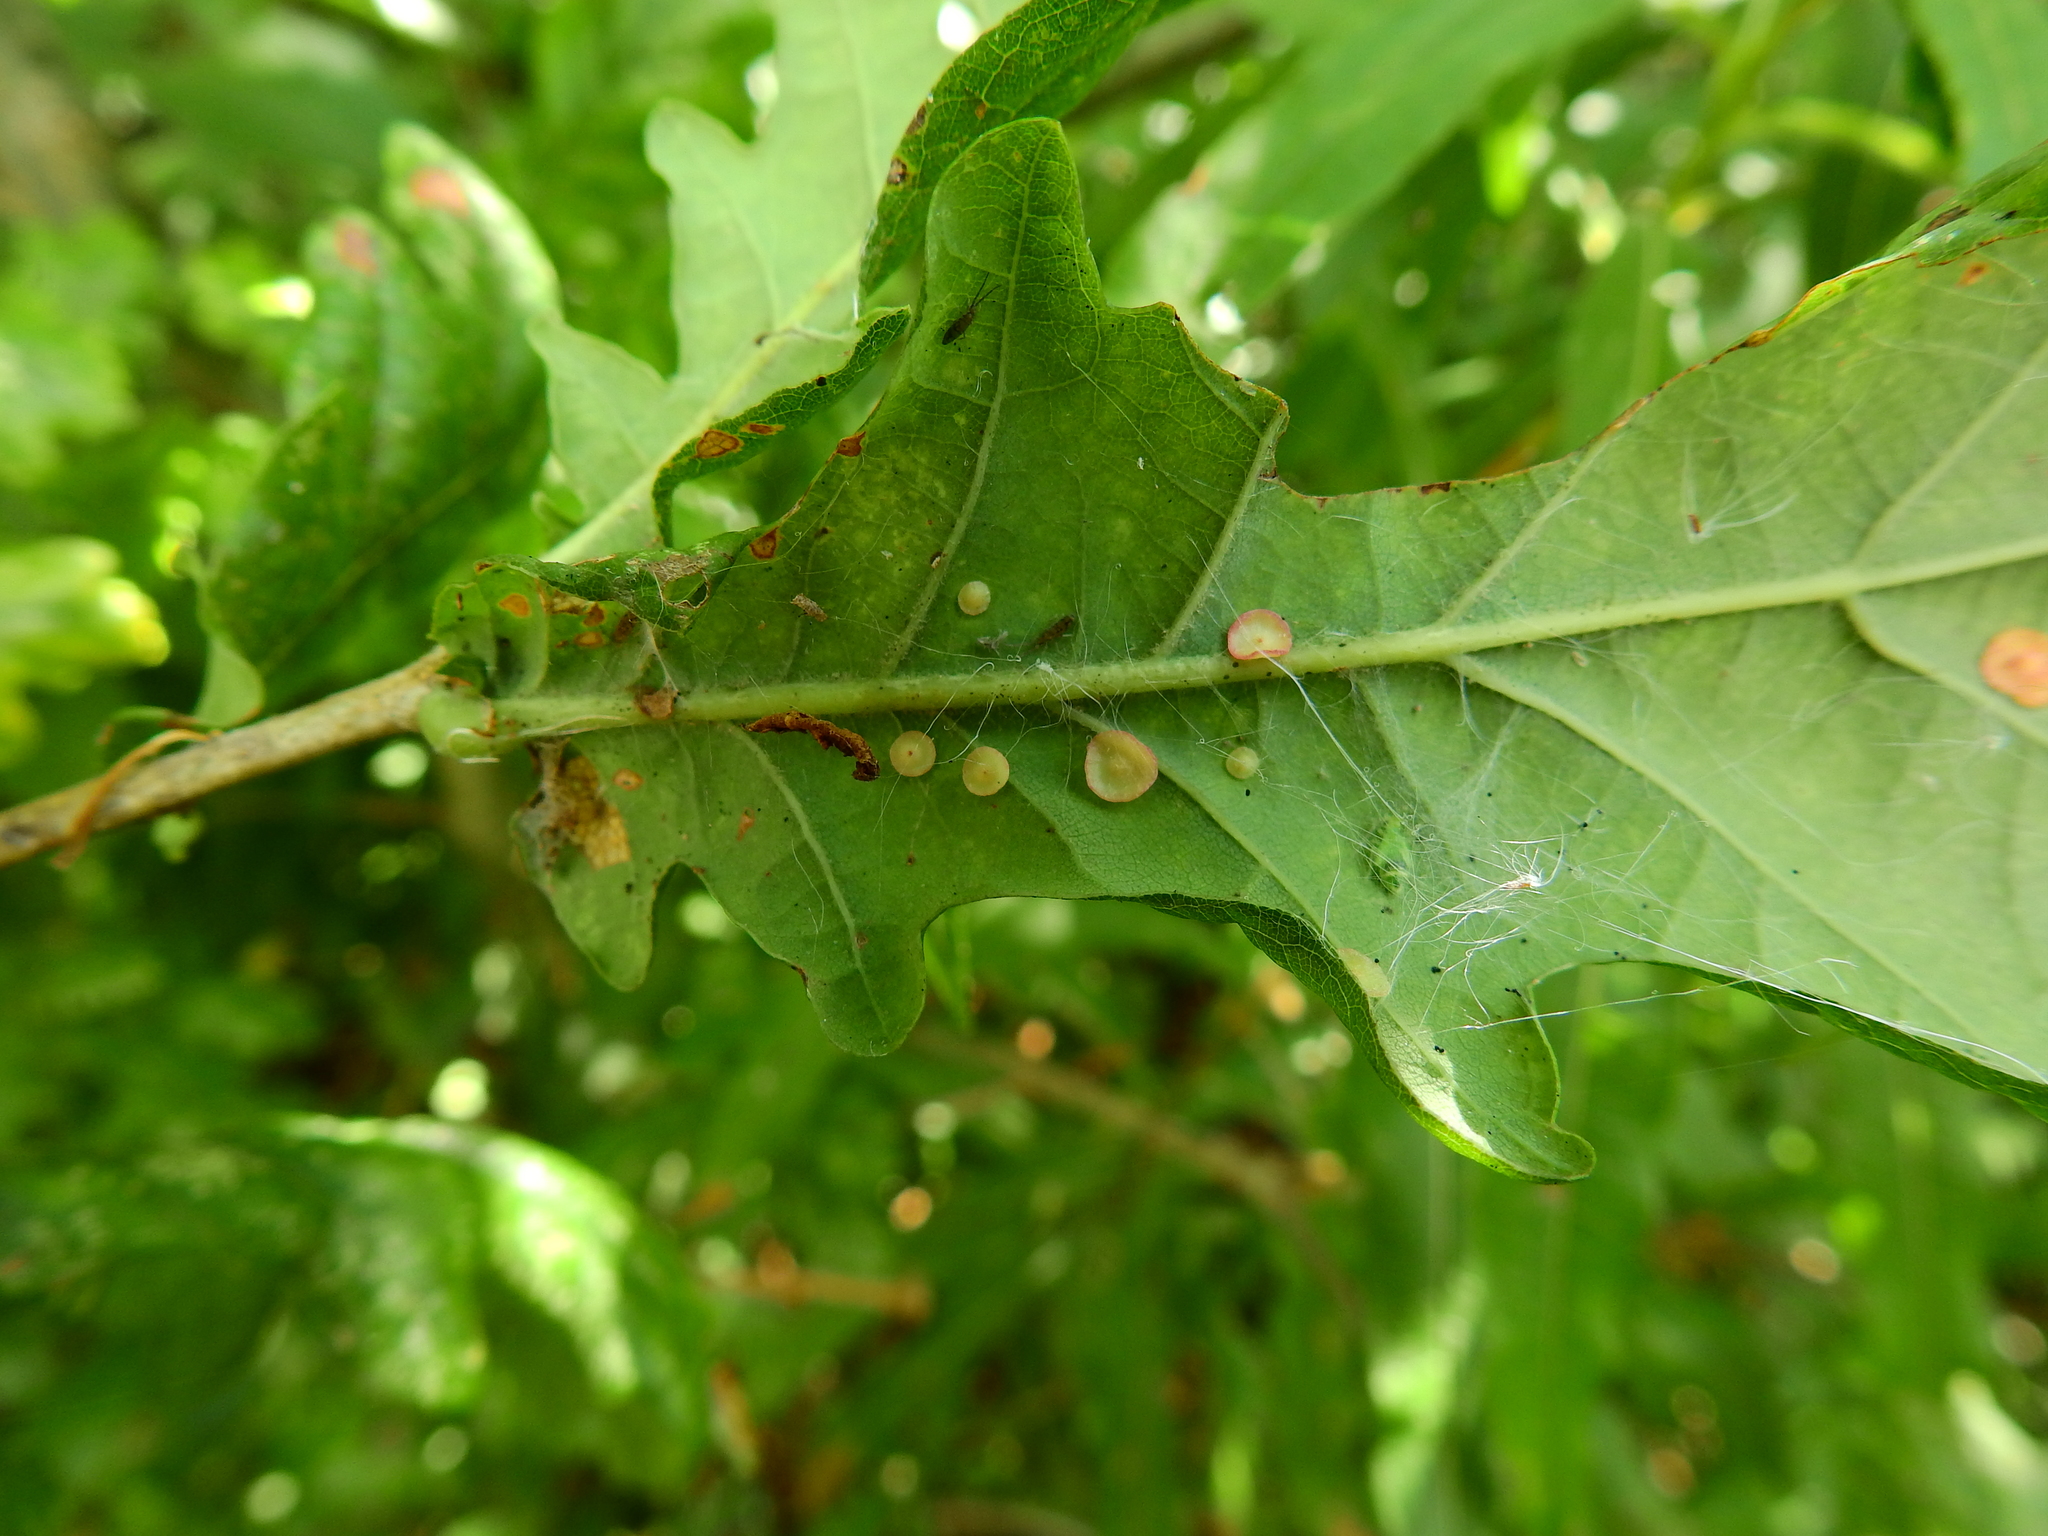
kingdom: Animalia
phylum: Arthropoda
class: Insecta
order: Hymenoptera
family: Cynipidae
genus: Neuroterus
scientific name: Neuroterus albipes
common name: Smooth spangle gall
